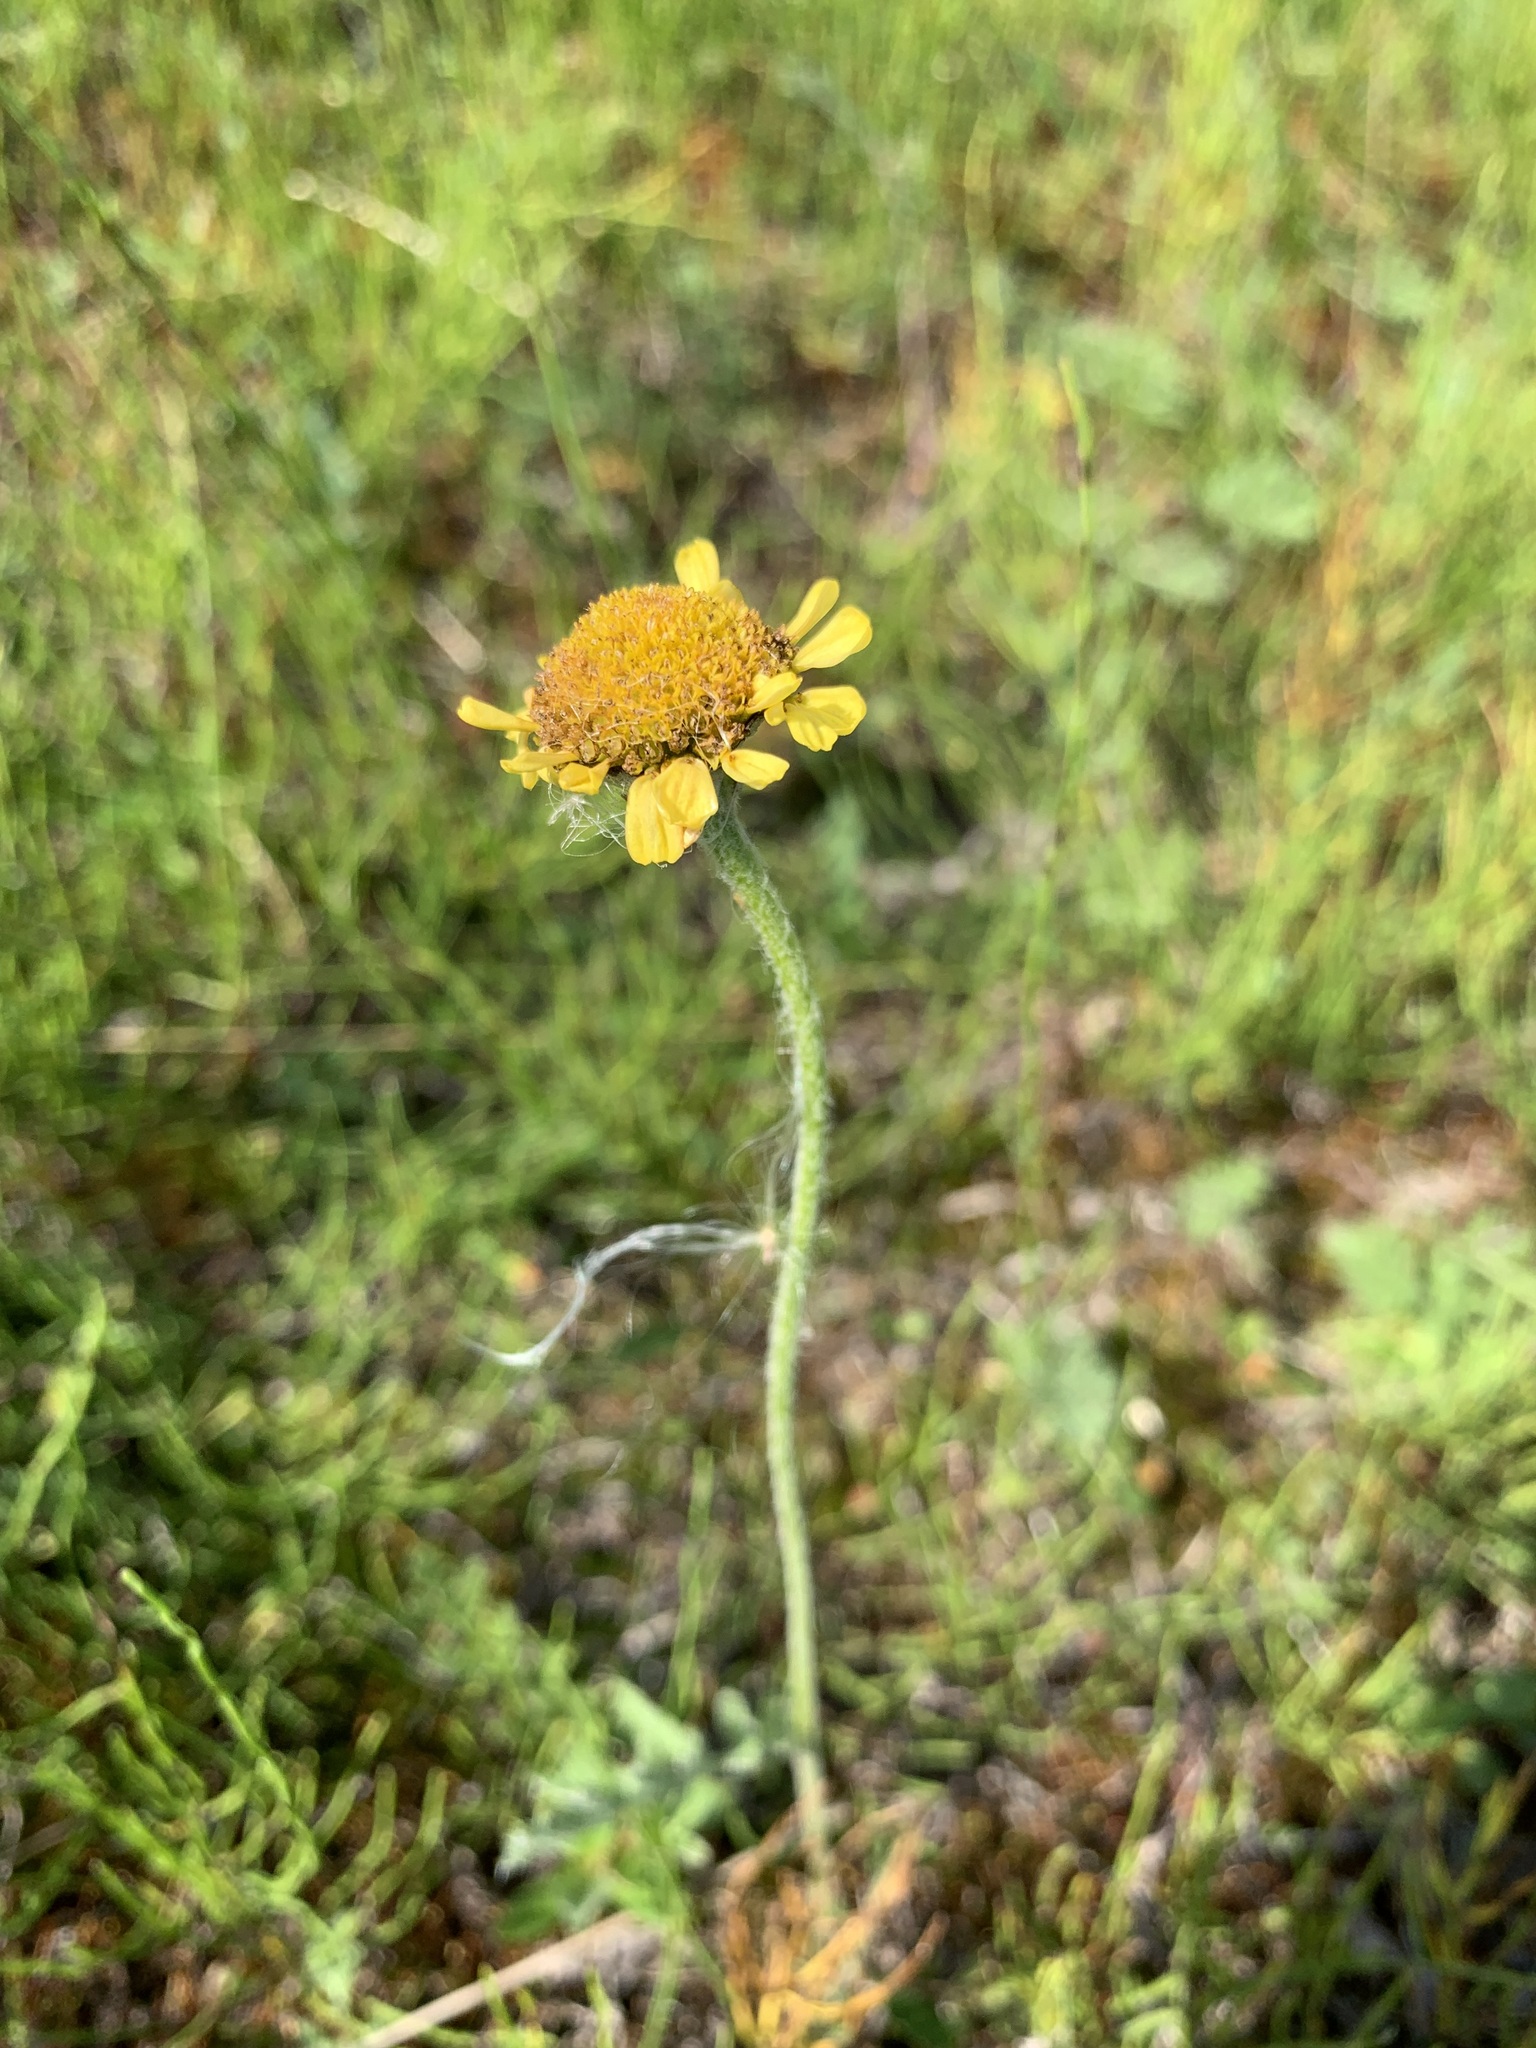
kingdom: Plantae
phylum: Tracheophyta
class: Magnoliopsida
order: Asterales
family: Asteraceae
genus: Tanacetum
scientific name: Tanacetum bipinnatum
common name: Dwarf tansy
